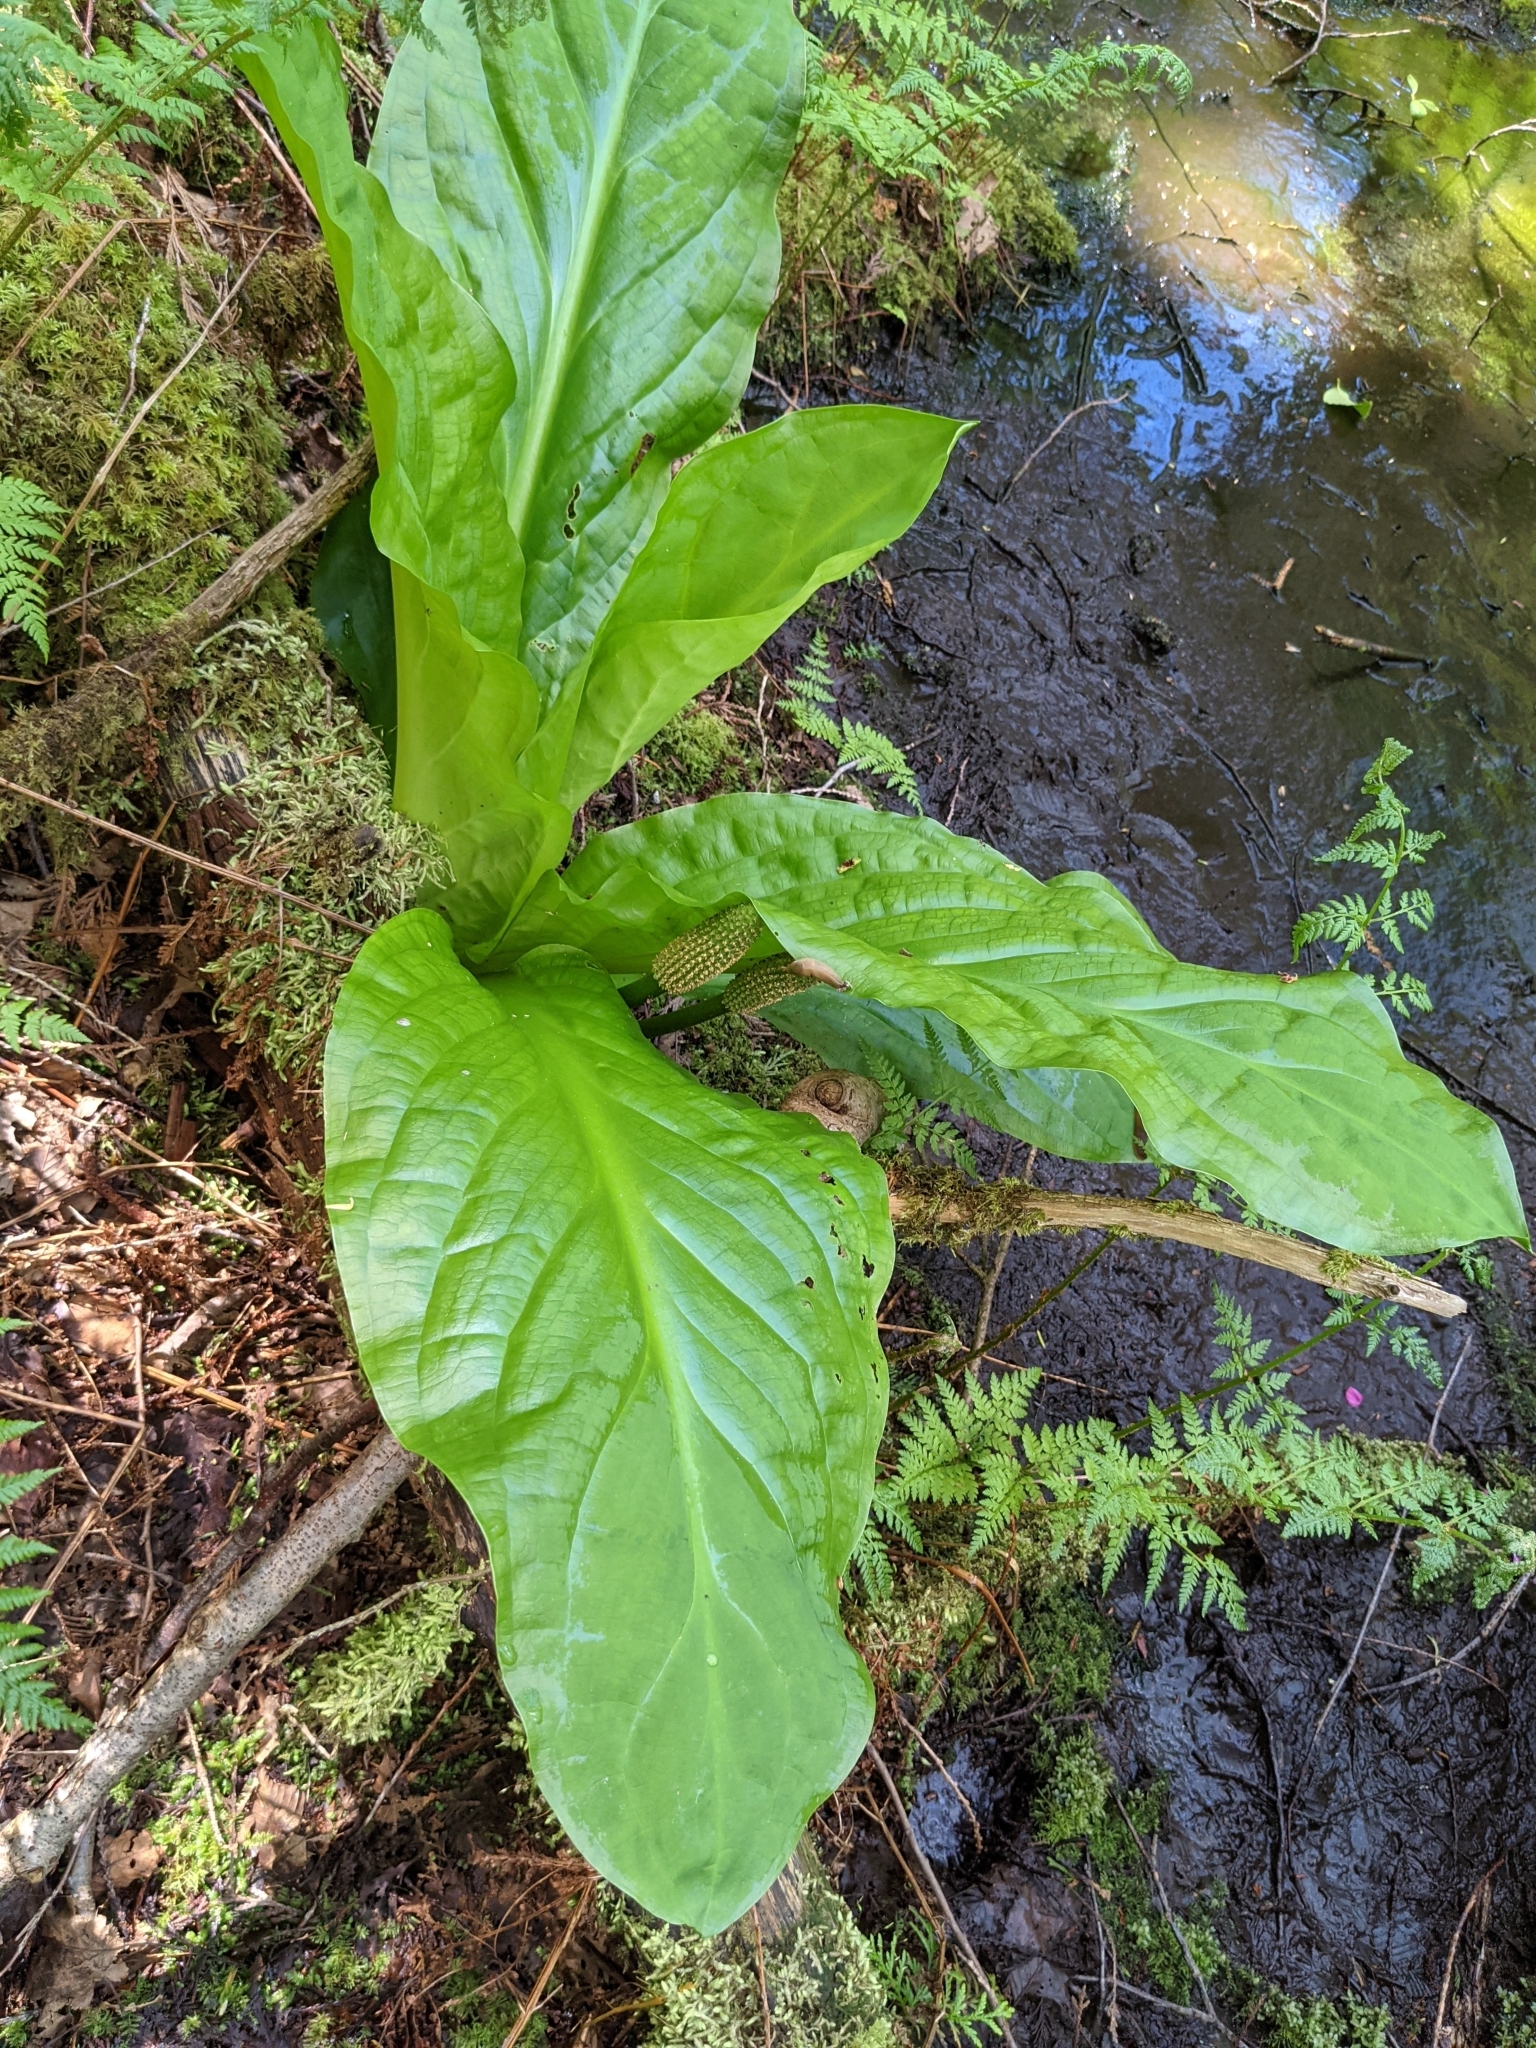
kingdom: Plantae
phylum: Tracheophyta
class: Liliopsida
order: Alismatales
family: Araceae
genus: Lysichiton
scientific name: Lysichiton americanus
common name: American skunk cabbage
